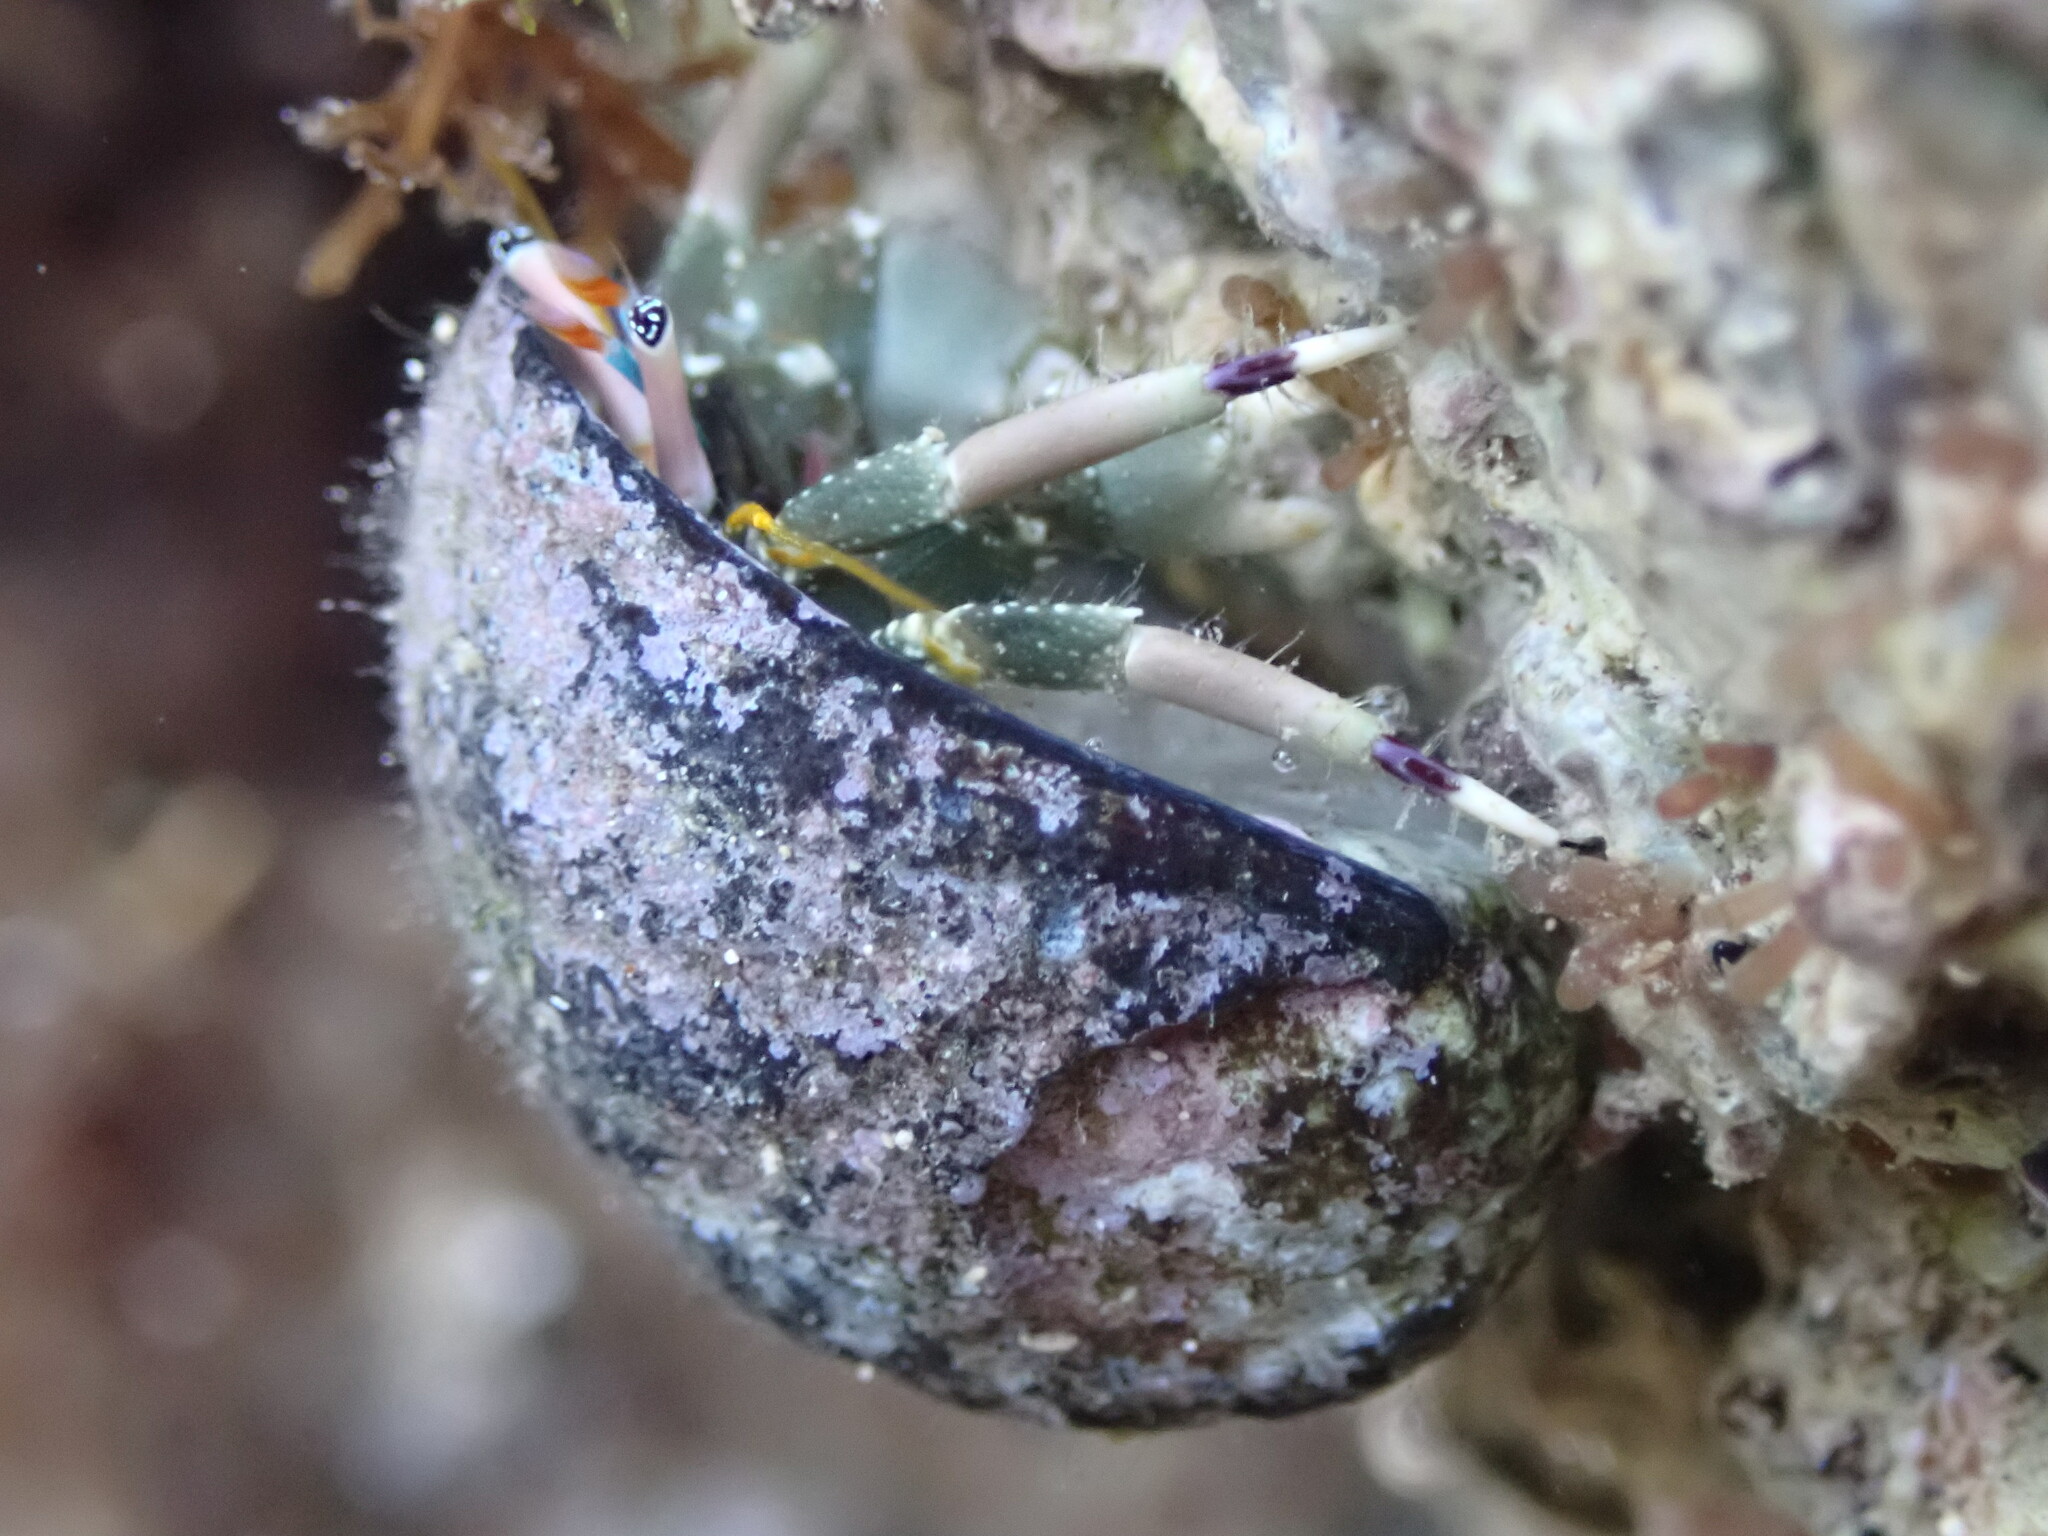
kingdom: Animalia
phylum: Arthropoda
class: Malacostraca
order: Decapoda
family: Diogenidae
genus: Calcinus
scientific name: Calcinus latens
